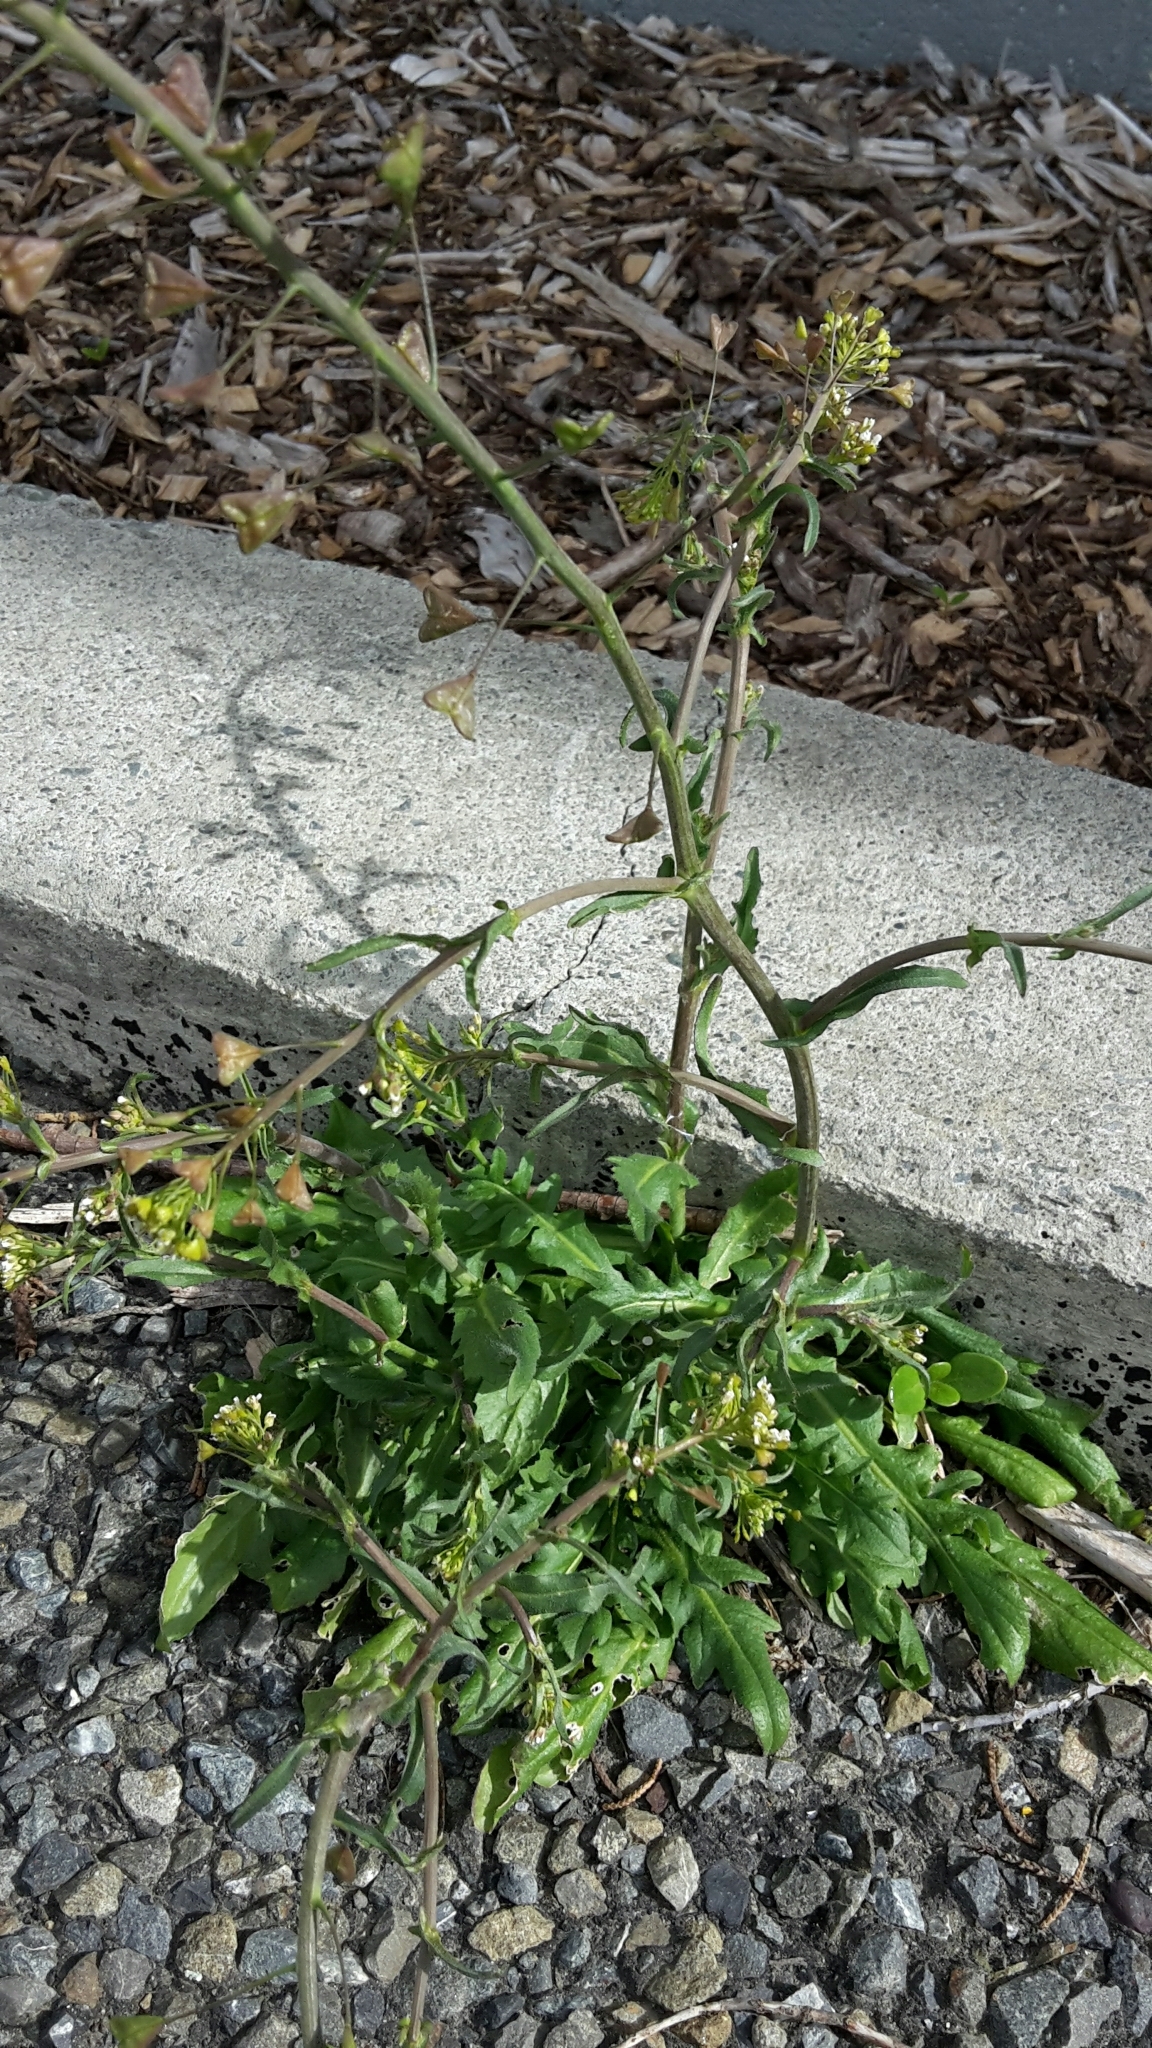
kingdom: Plantae
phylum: Tracheophyta
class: Magnoliopsida
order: Brassicales
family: Brassicaceae
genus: Capsella
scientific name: Capsella bursa-pastoris
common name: Shepherd's purse
